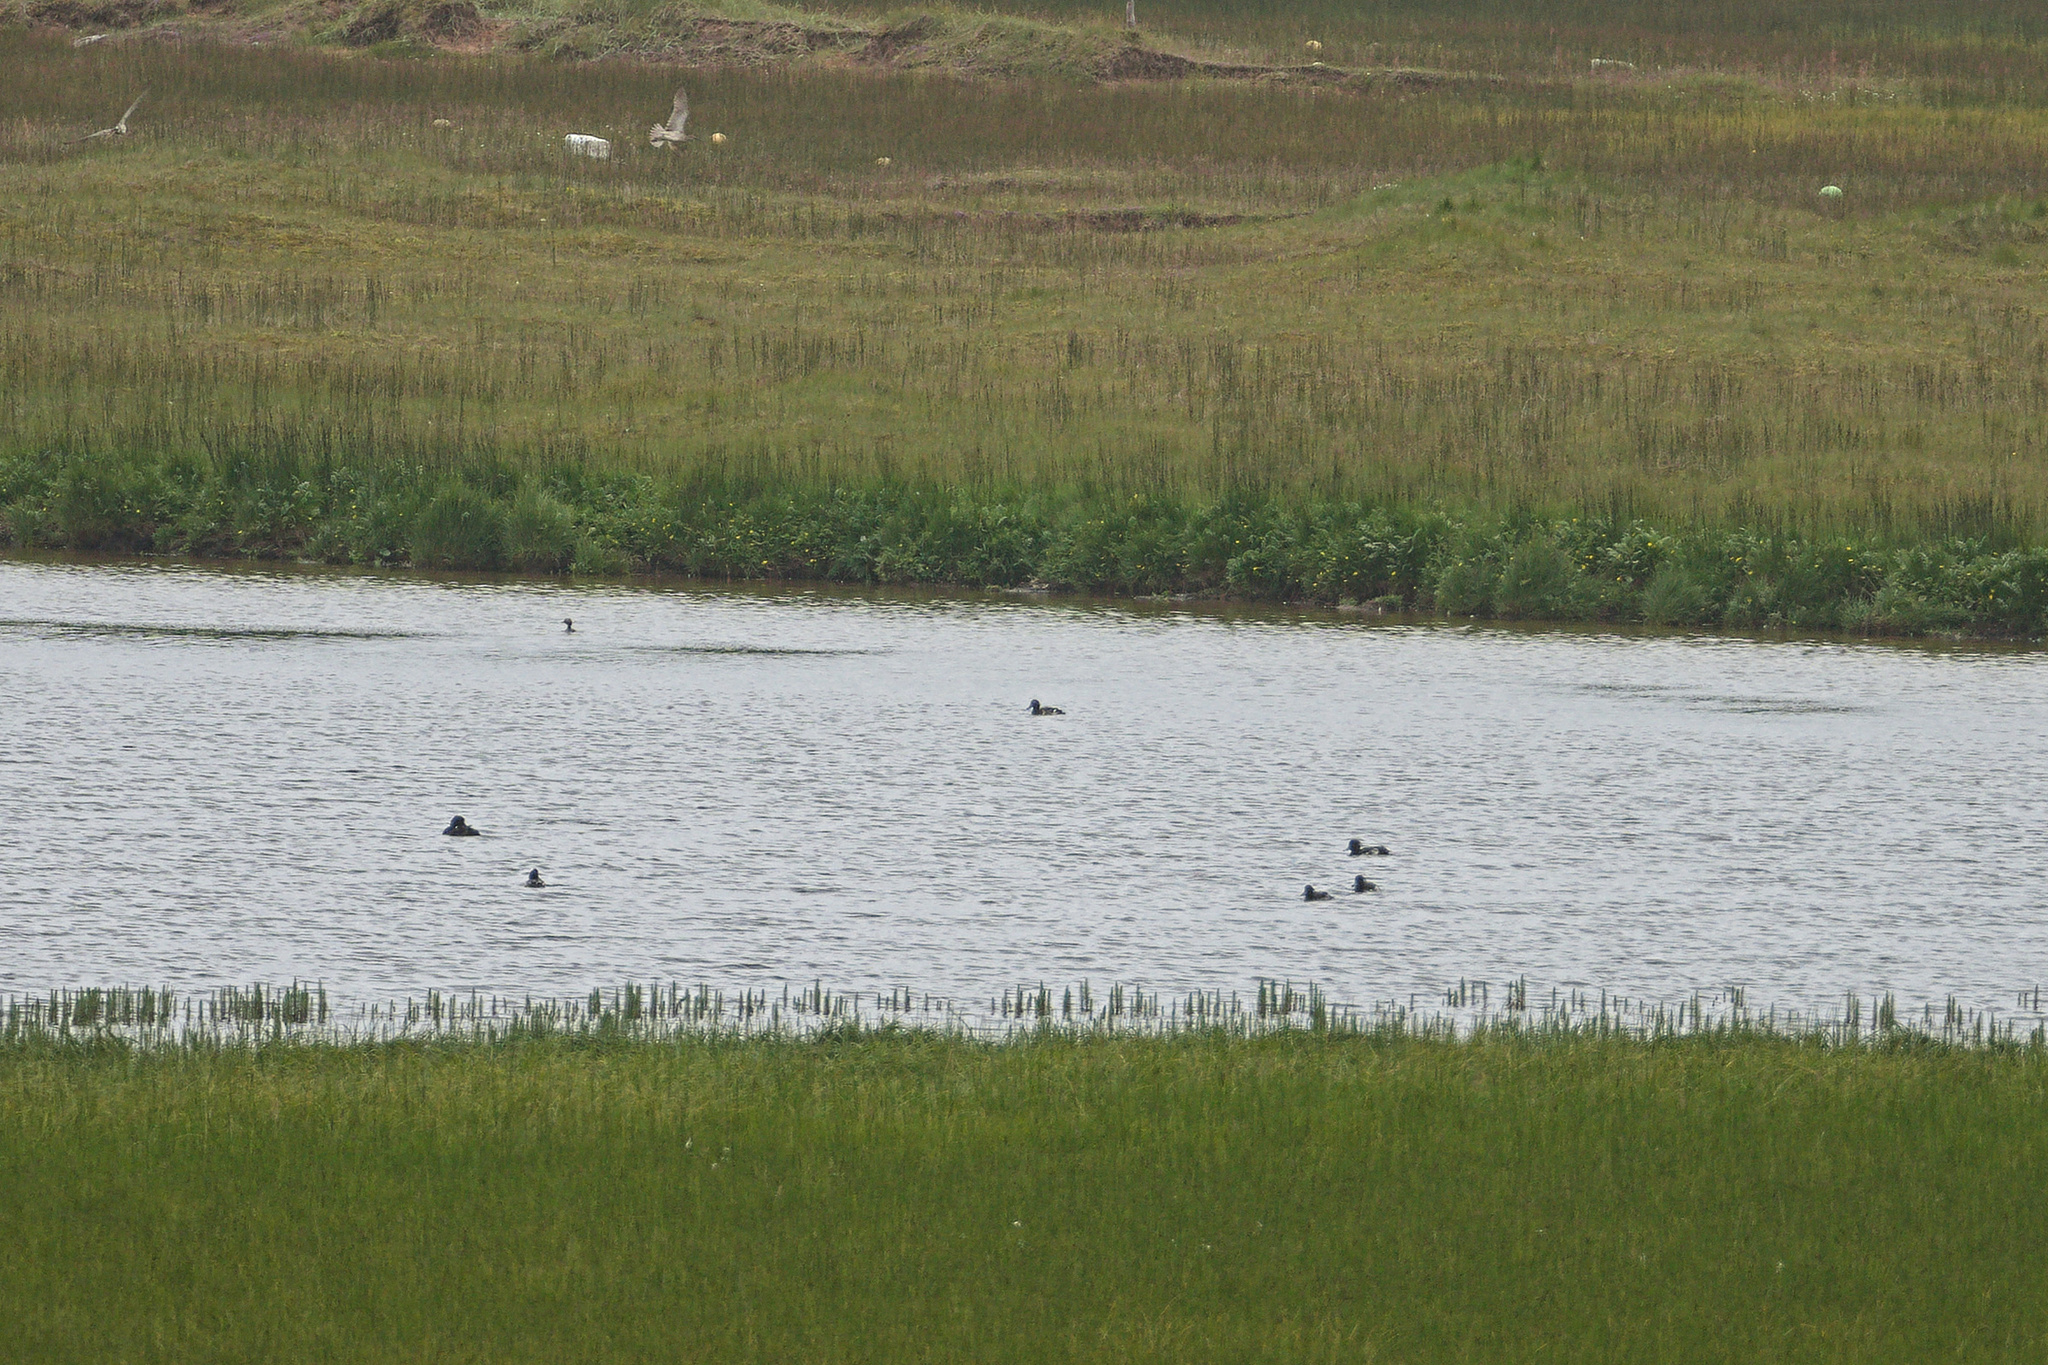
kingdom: Animalia
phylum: Chordata
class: Aves
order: Anseriformes
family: Anatidae
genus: Aythya
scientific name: Aythya fuligula
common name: Tufted duck
